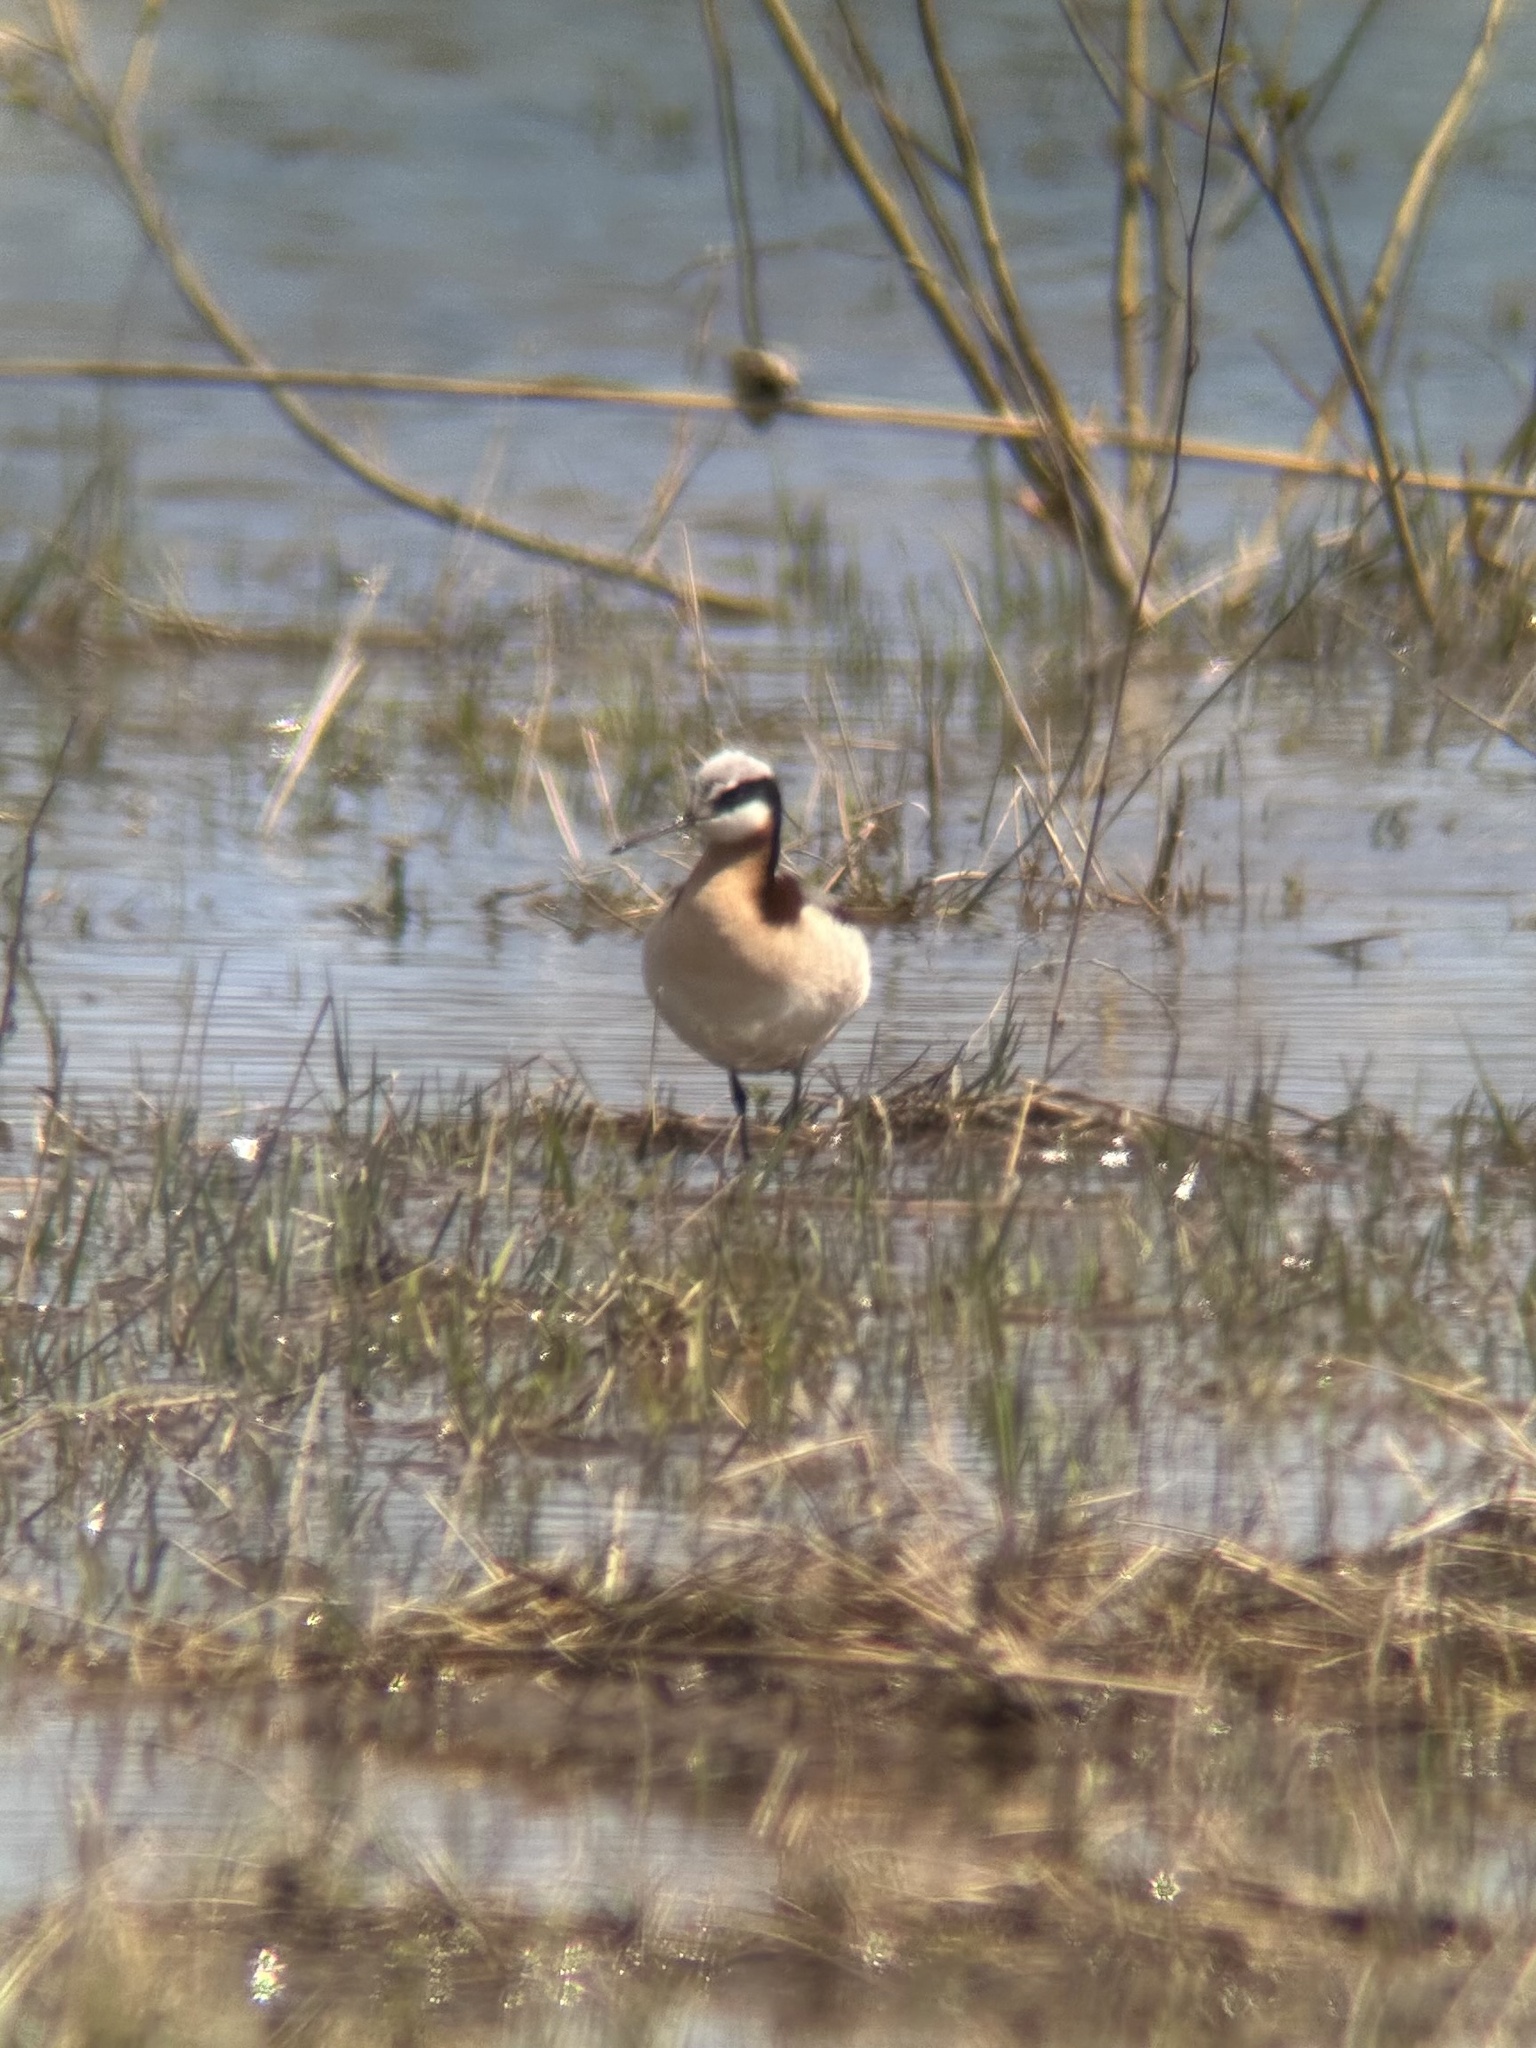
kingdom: Animalia
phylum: Chordata
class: Aves
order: Charadriiformes
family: Scolopacidae
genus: Phalaropus
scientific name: Phalaropus tricolor
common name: Wilson's phalarope
